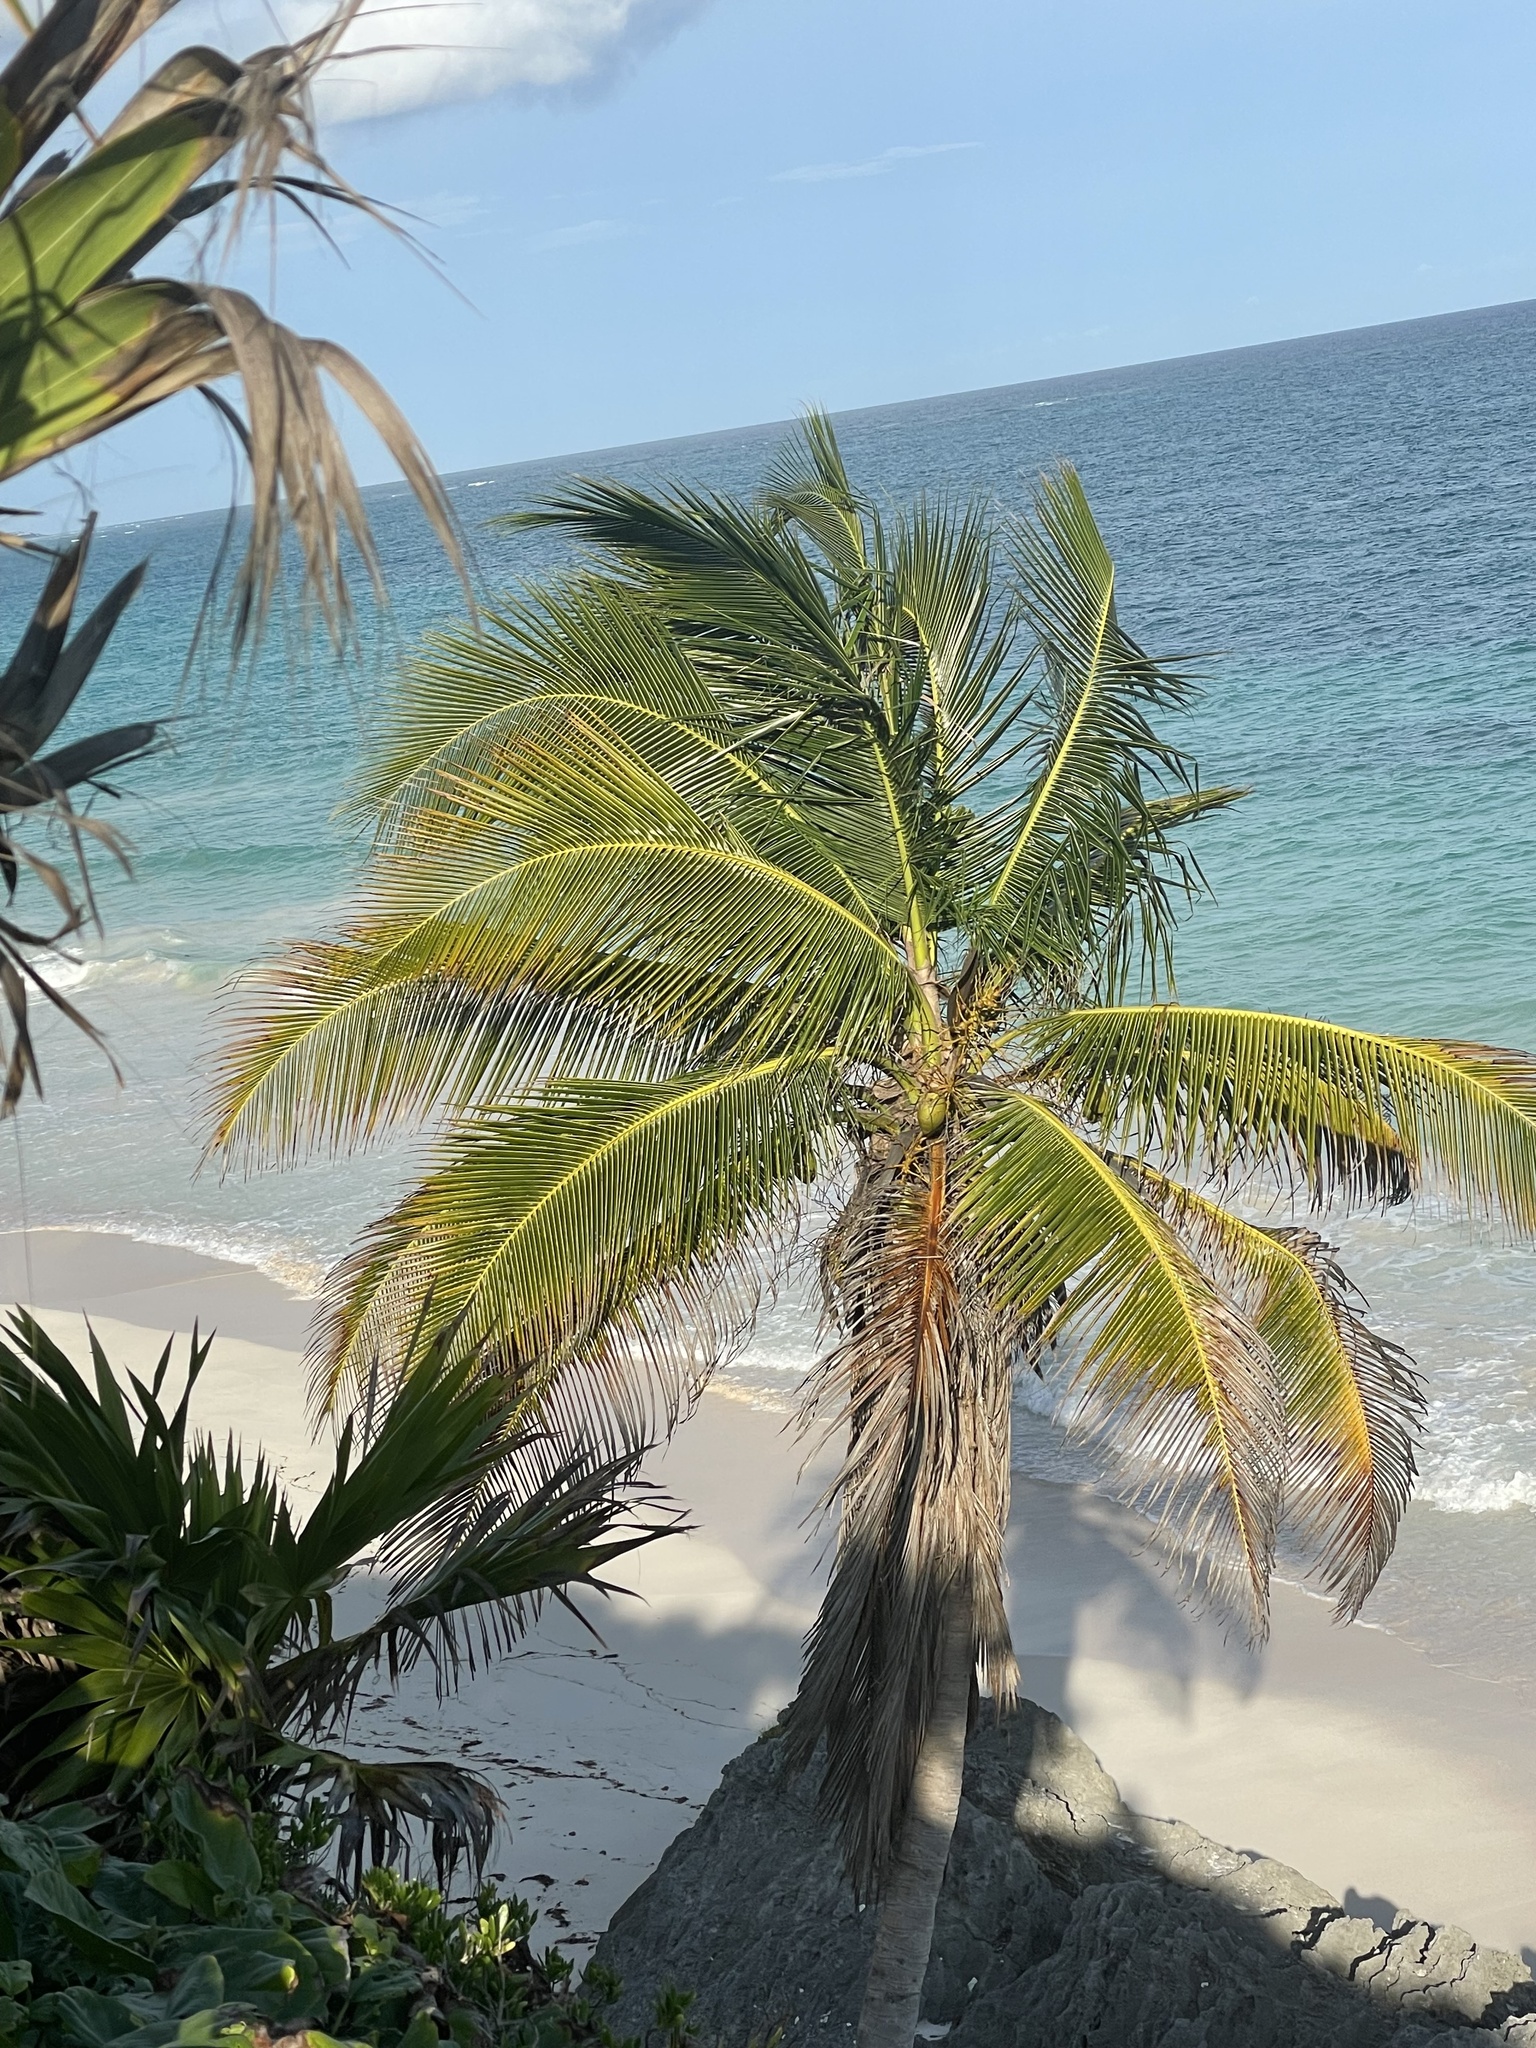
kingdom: Plantae
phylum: Tracheophyta
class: Liliopsida
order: Arecales
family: Arecaceae
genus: Cocos
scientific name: Cocos nucifera
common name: Coconut palm
